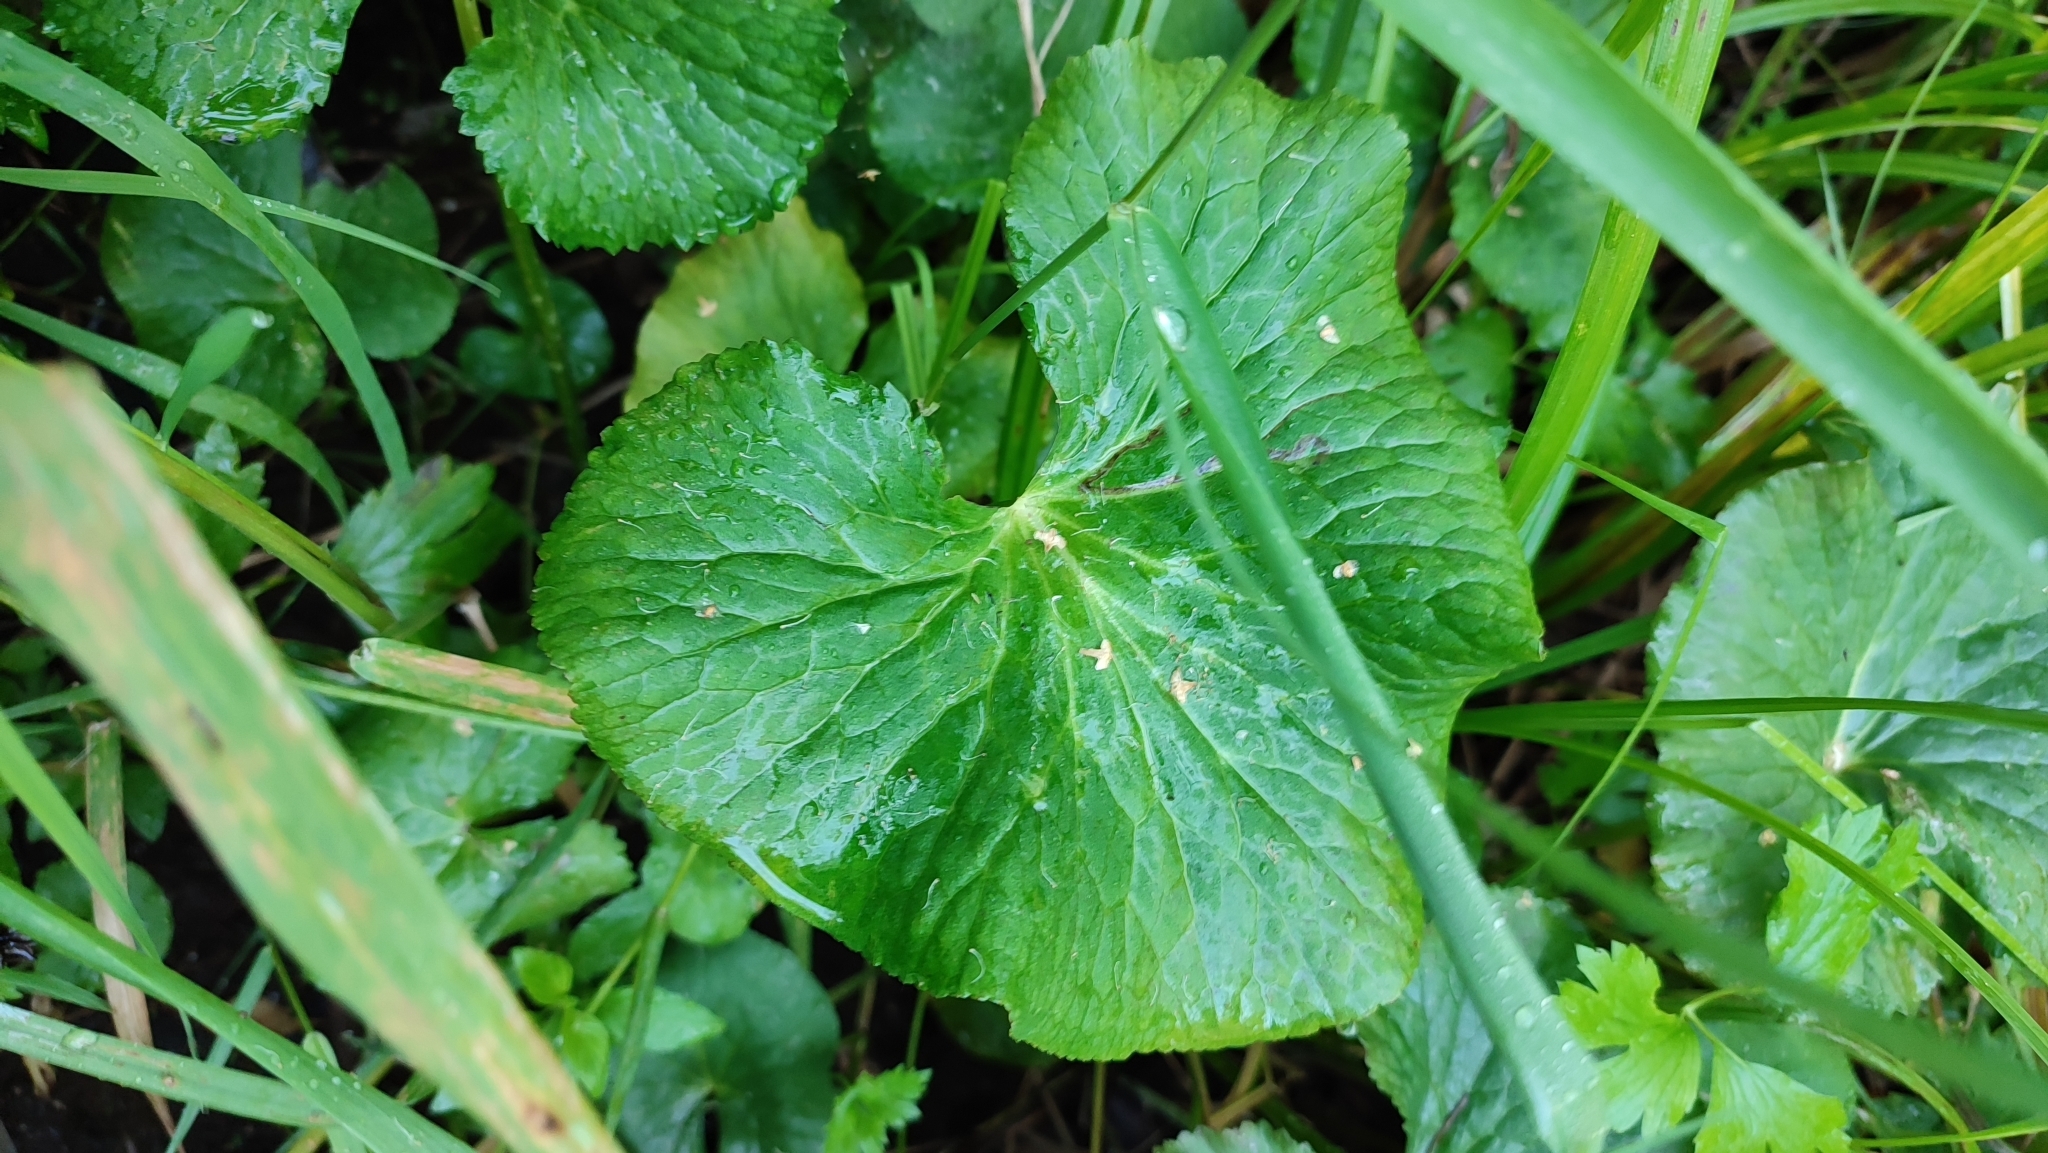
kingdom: Plantae
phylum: Tracheophyta
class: Magnoliopsida
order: Ranunculales
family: Ranunculaceae
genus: Caltha
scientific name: Caltha palustris
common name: Marsh marigold
